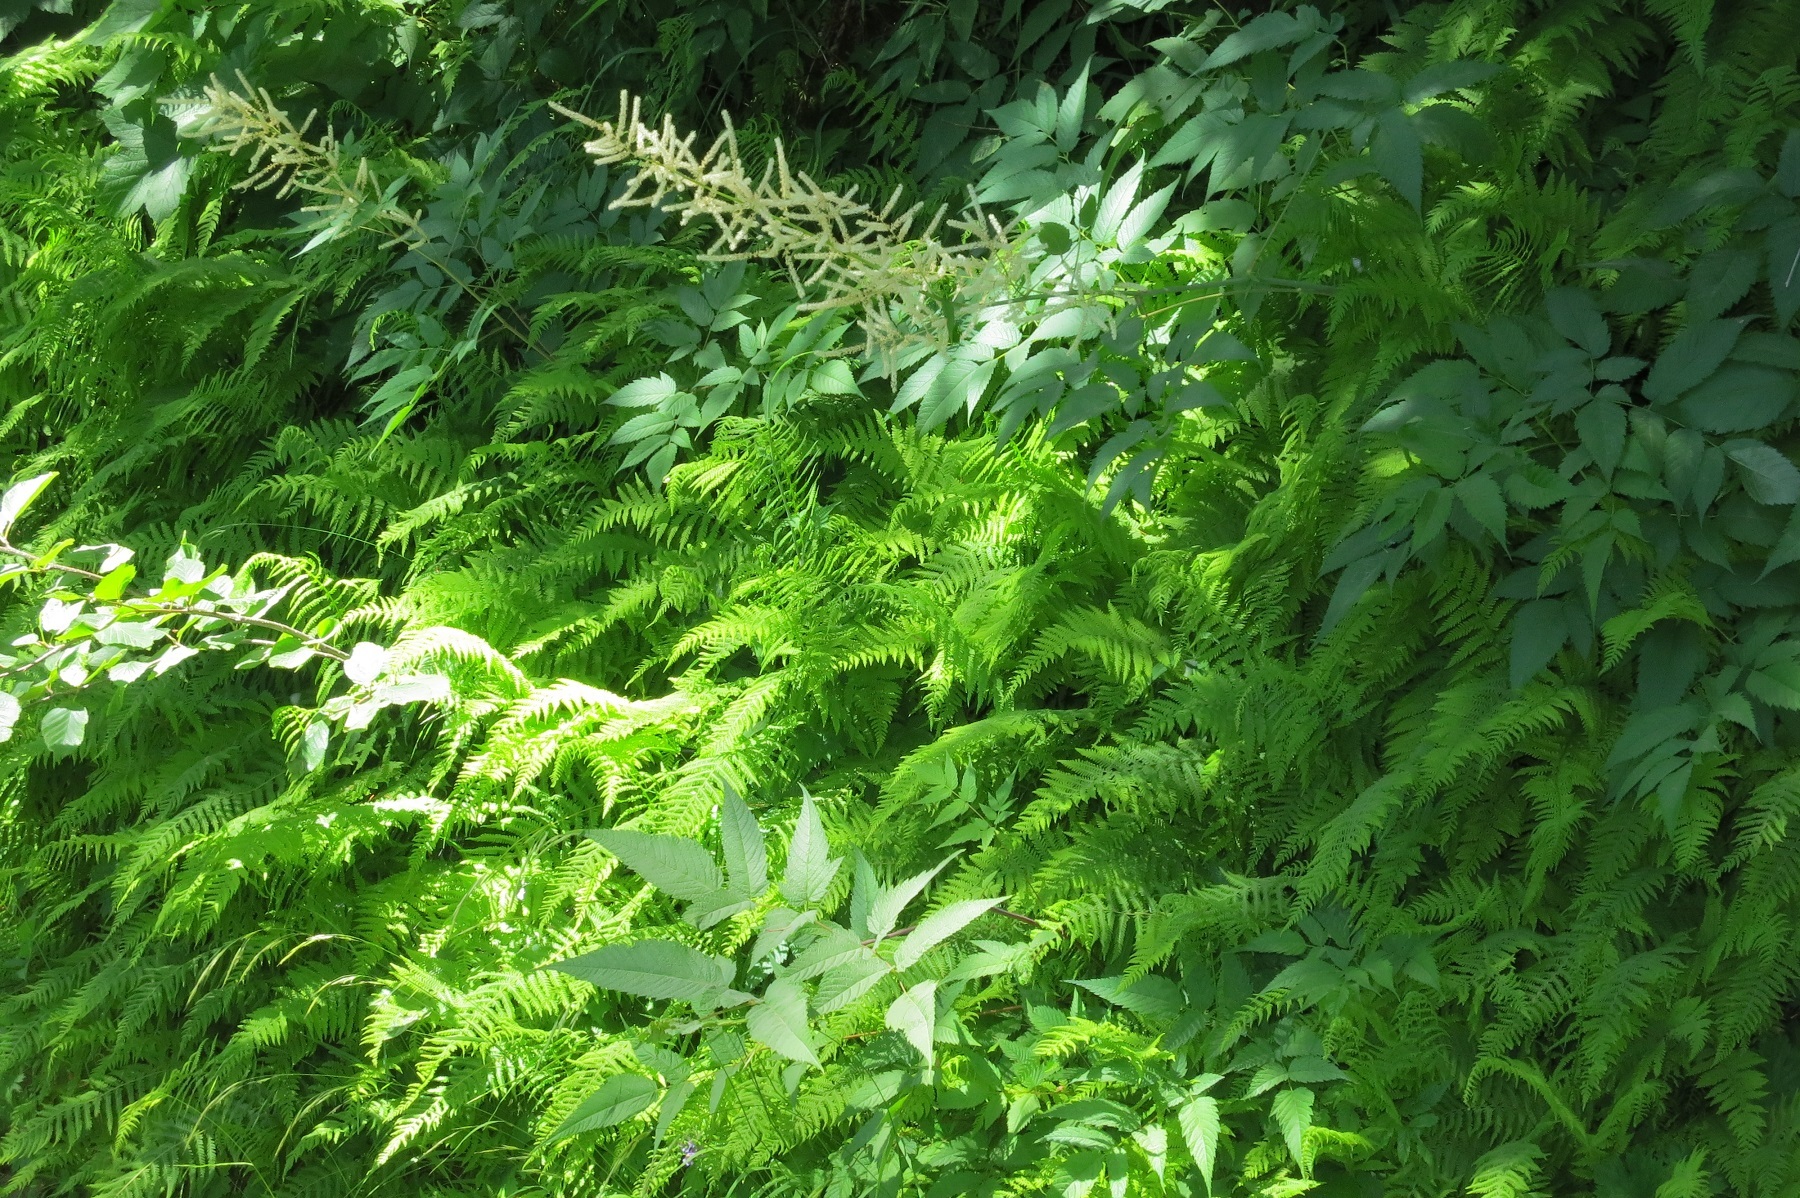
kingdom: Plantae
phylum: Tracheophyta
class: Polypodiopsida
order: Polypodiales
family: Thelypteridaceae
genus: Amauropelta
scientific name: Amauropelta nevadensis
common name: Nevada marsh fern
